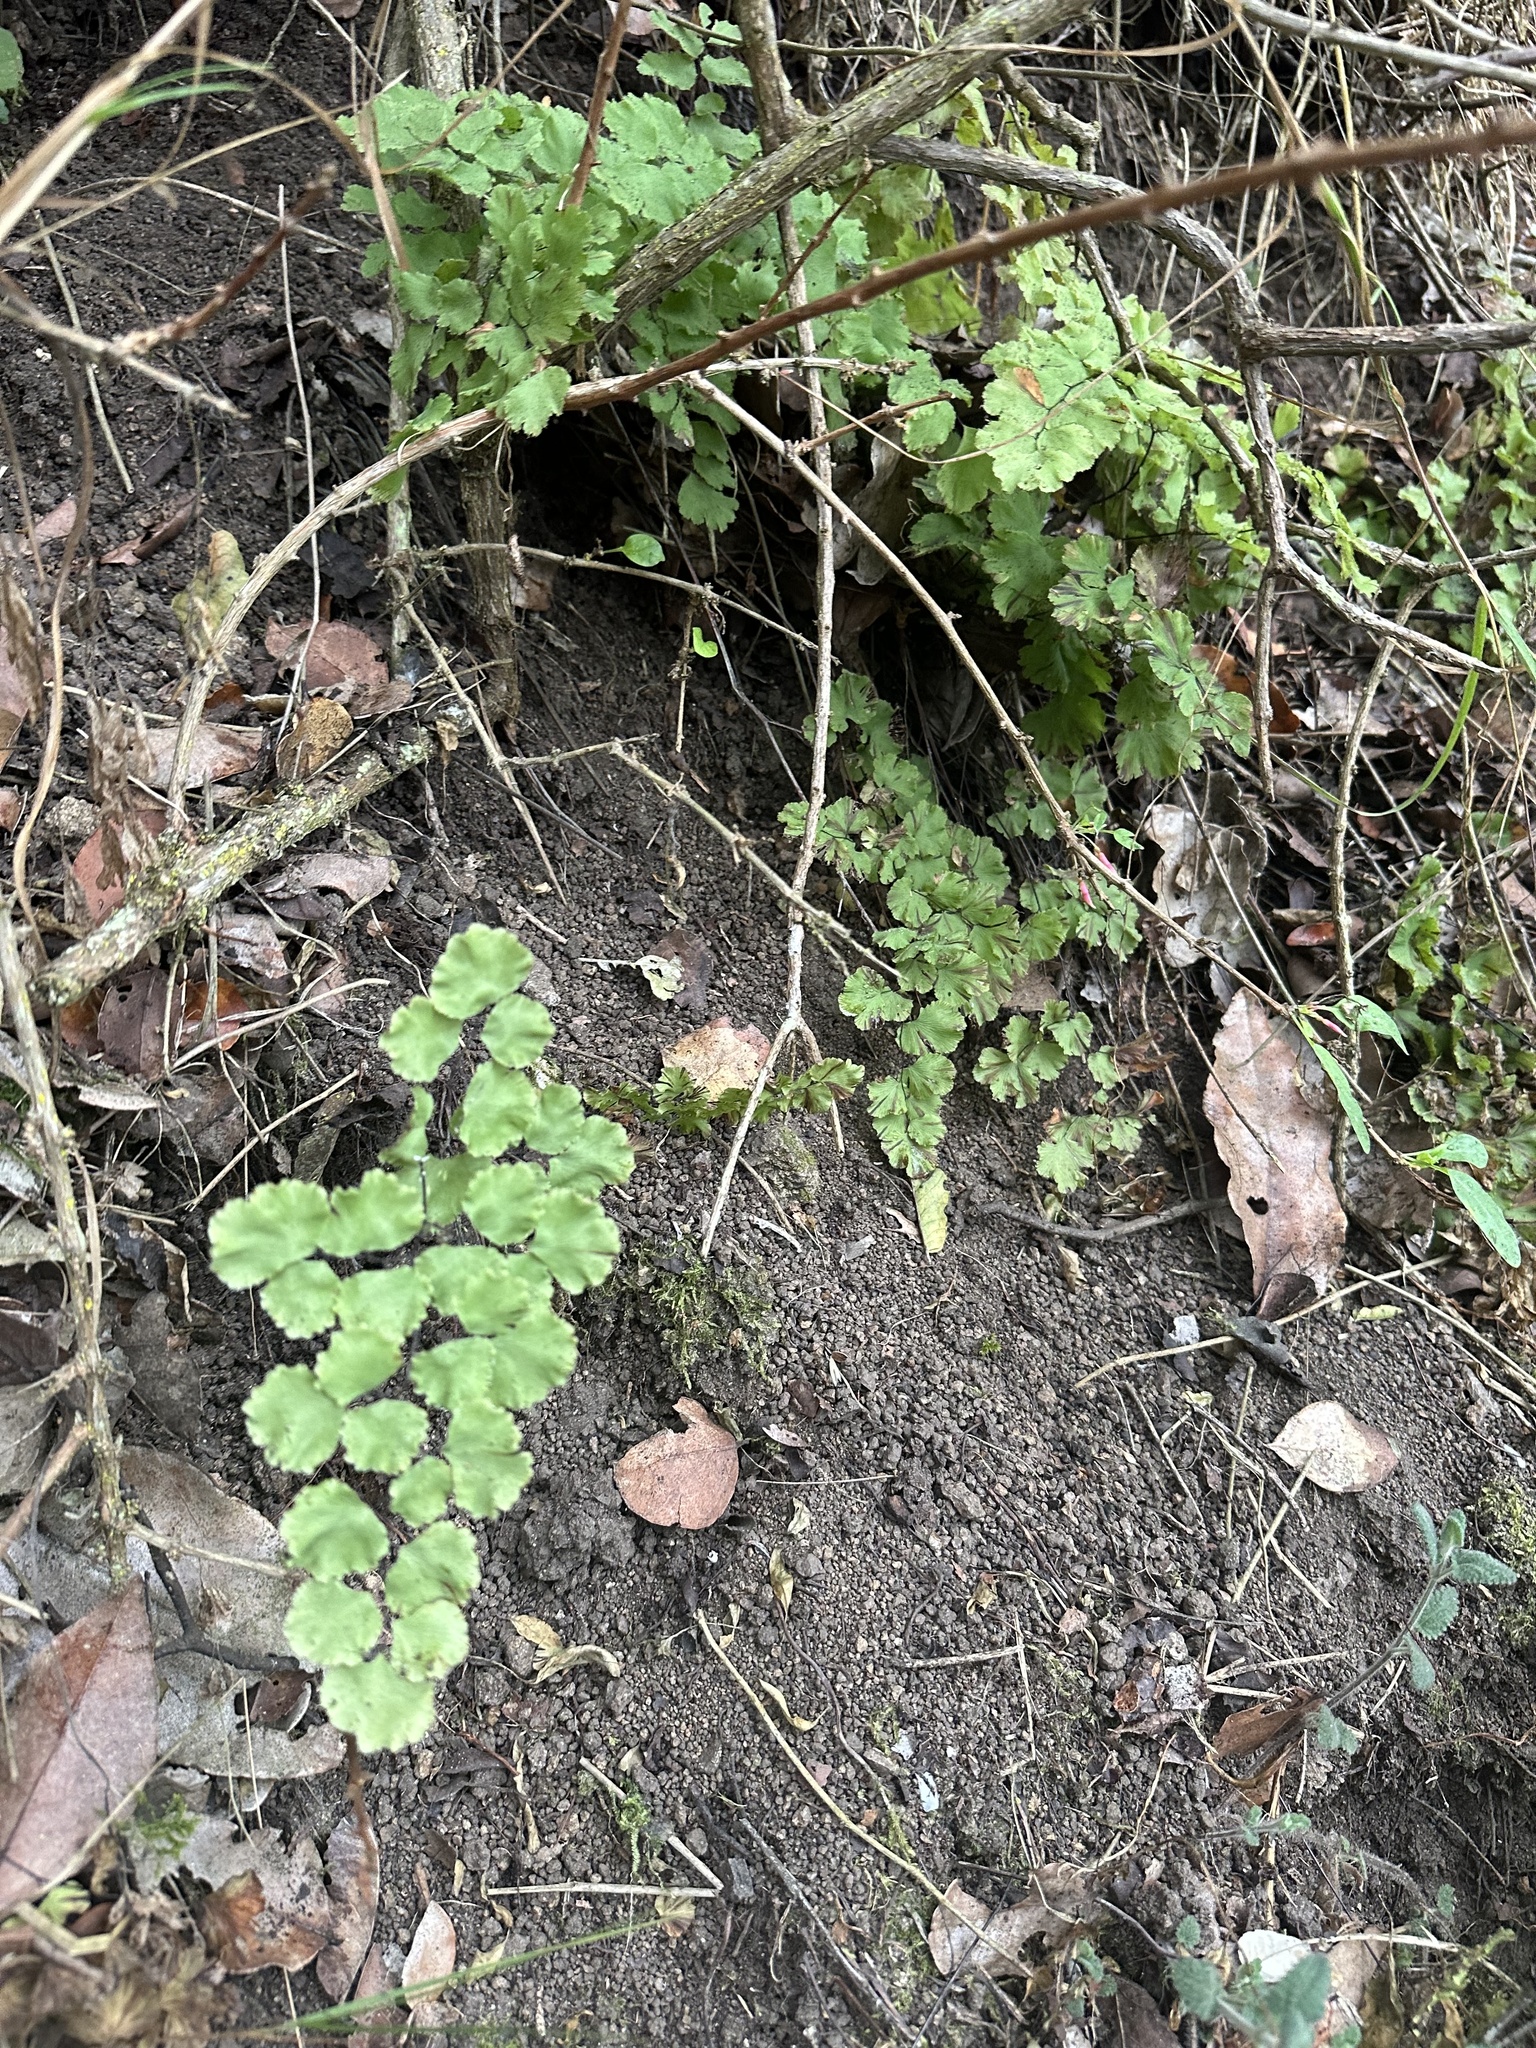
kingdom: Plantae
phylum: Tracheophyta
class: Polypodiopsida
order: Polypodiales
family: Pteridaceae
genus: Adiantum
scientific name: Adiantum chilense
